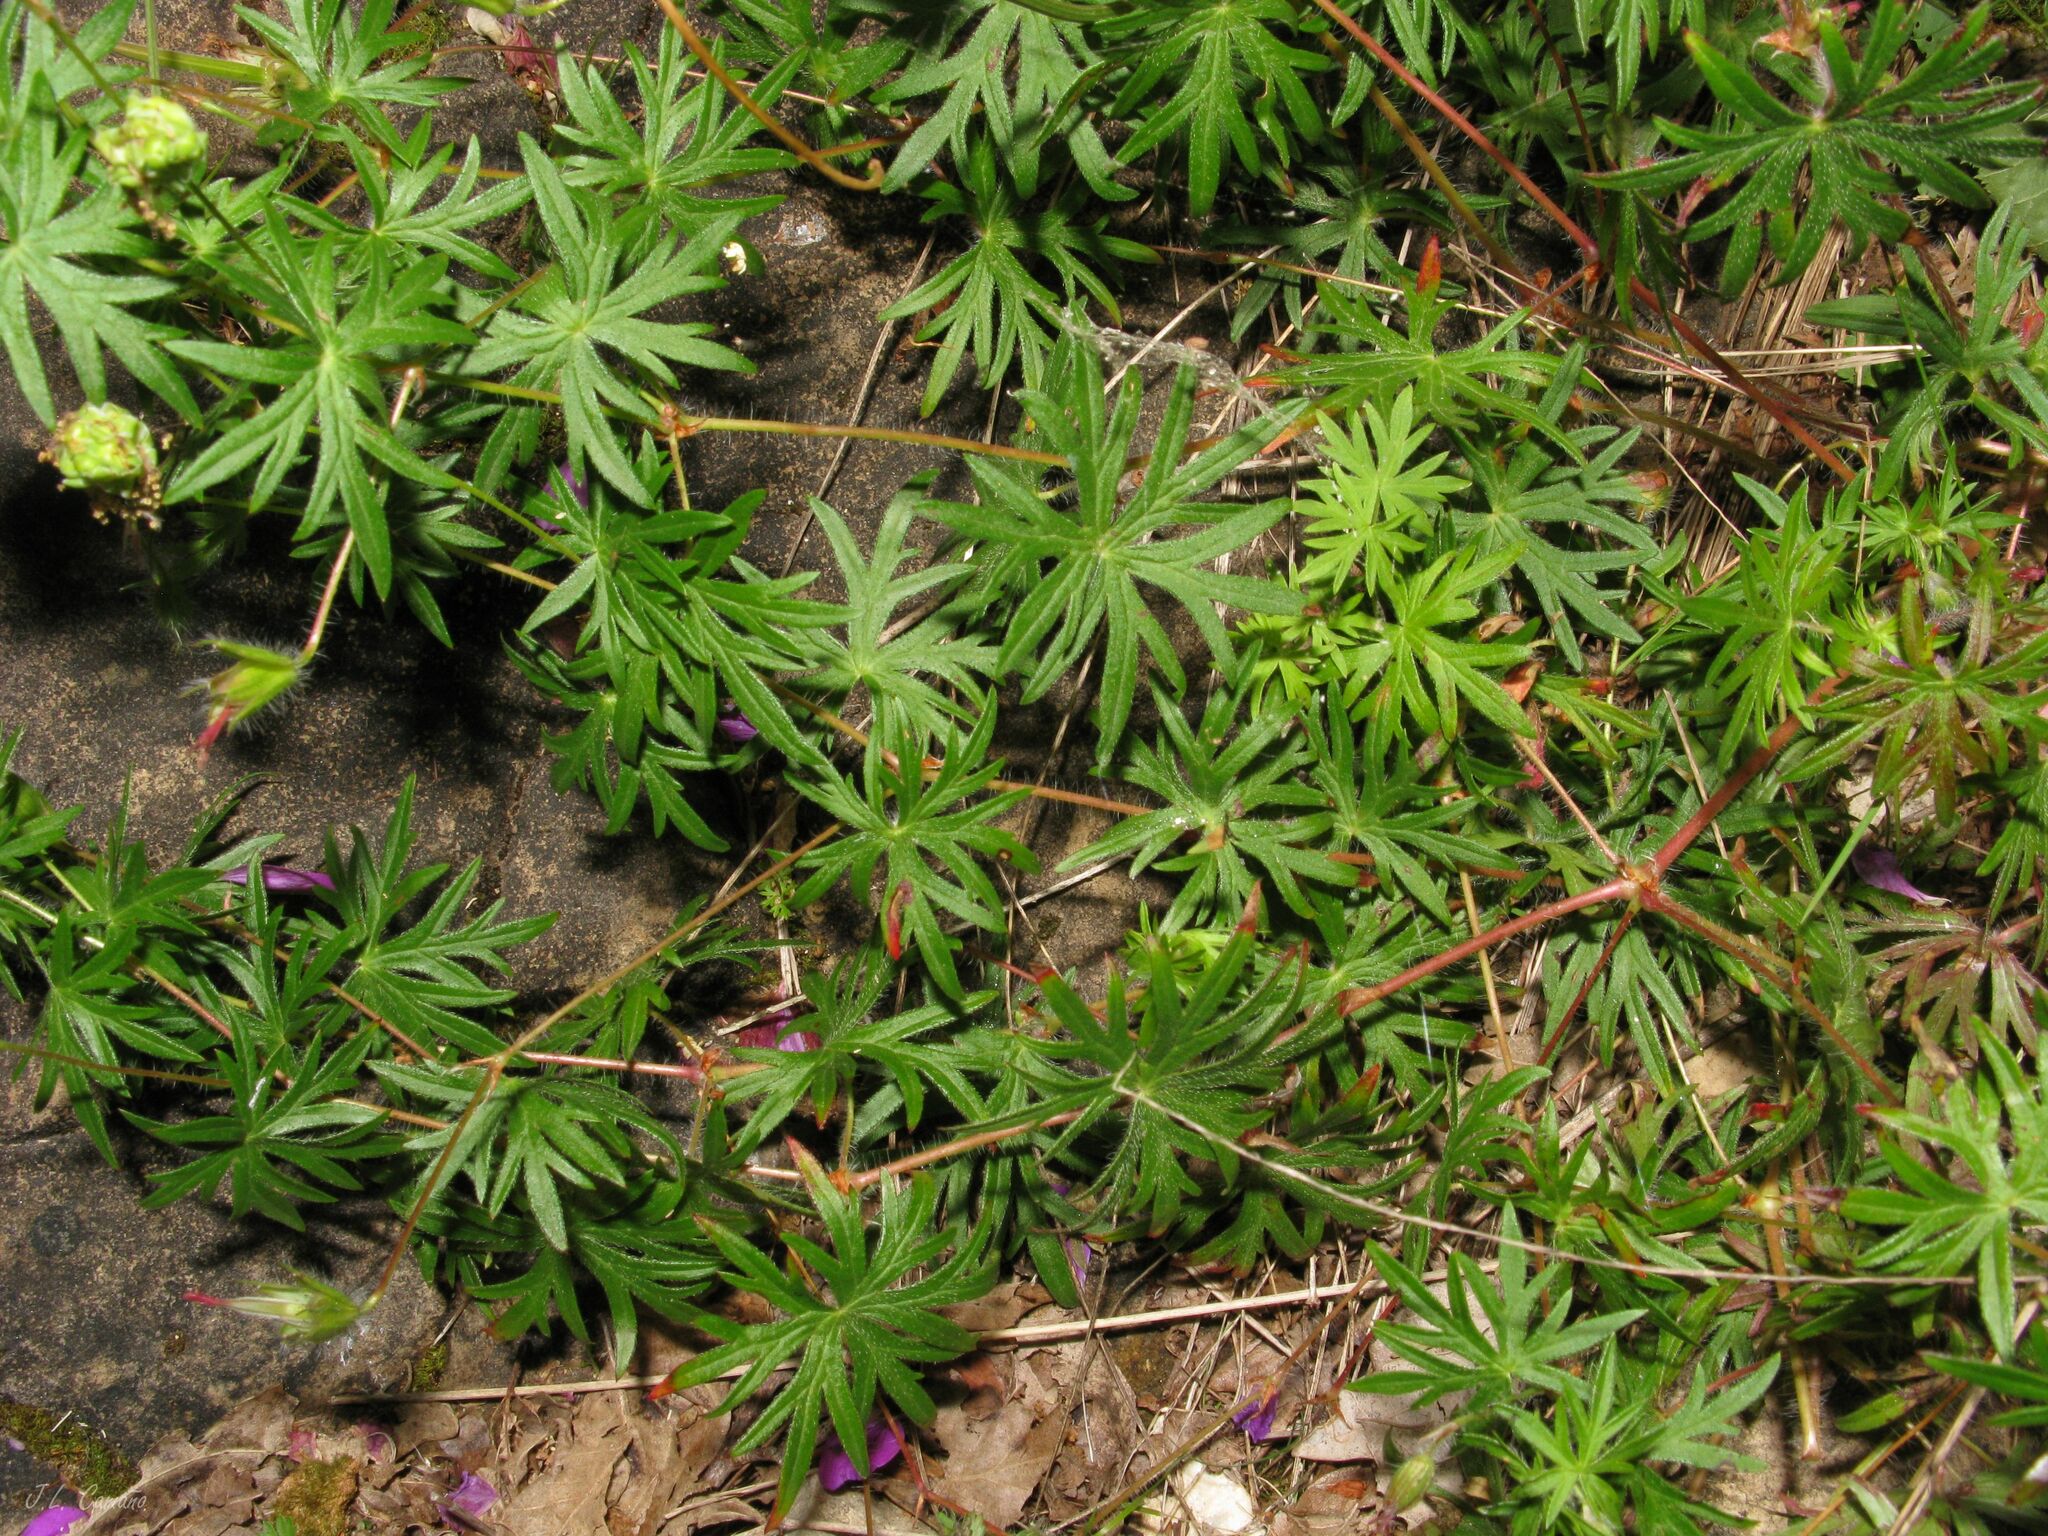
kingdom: Plantae
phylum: Tracheophyta
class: Magnoliopsida
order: Geraniales
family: Geraniaceae
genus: Geranium
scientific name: Geranium sanguineum
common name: Bloody crane's-bill
